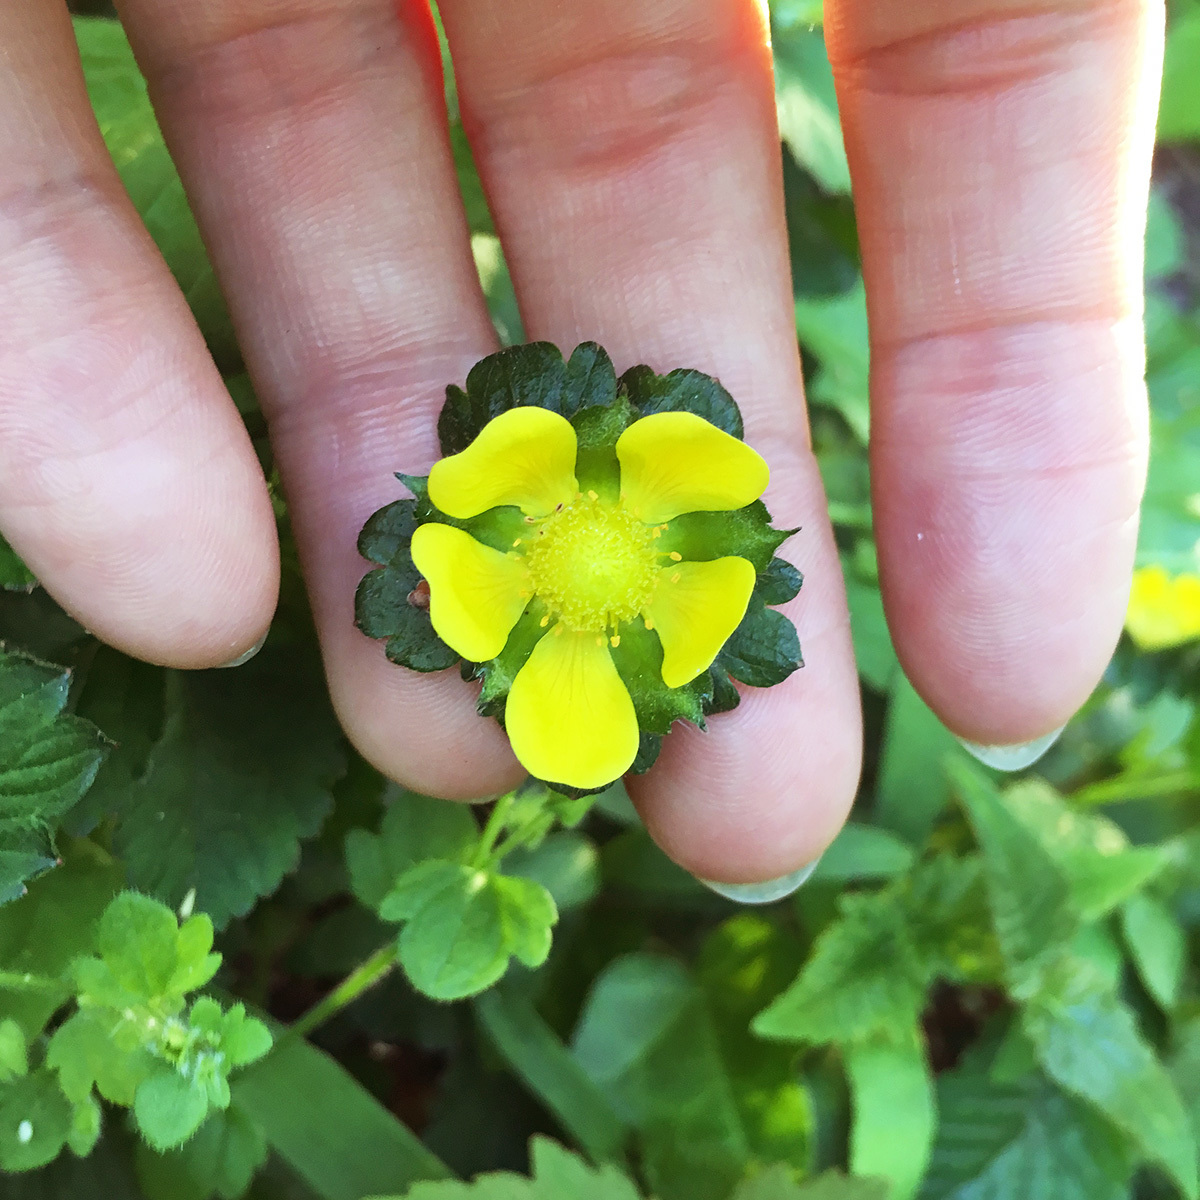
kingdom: Plantae
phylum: Tracheophyta
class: Magnoliopsida
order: Rosales
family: Rosaceae
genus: Potentilla
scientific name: Potentilla indica
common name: Yellow-flowered strawberry
